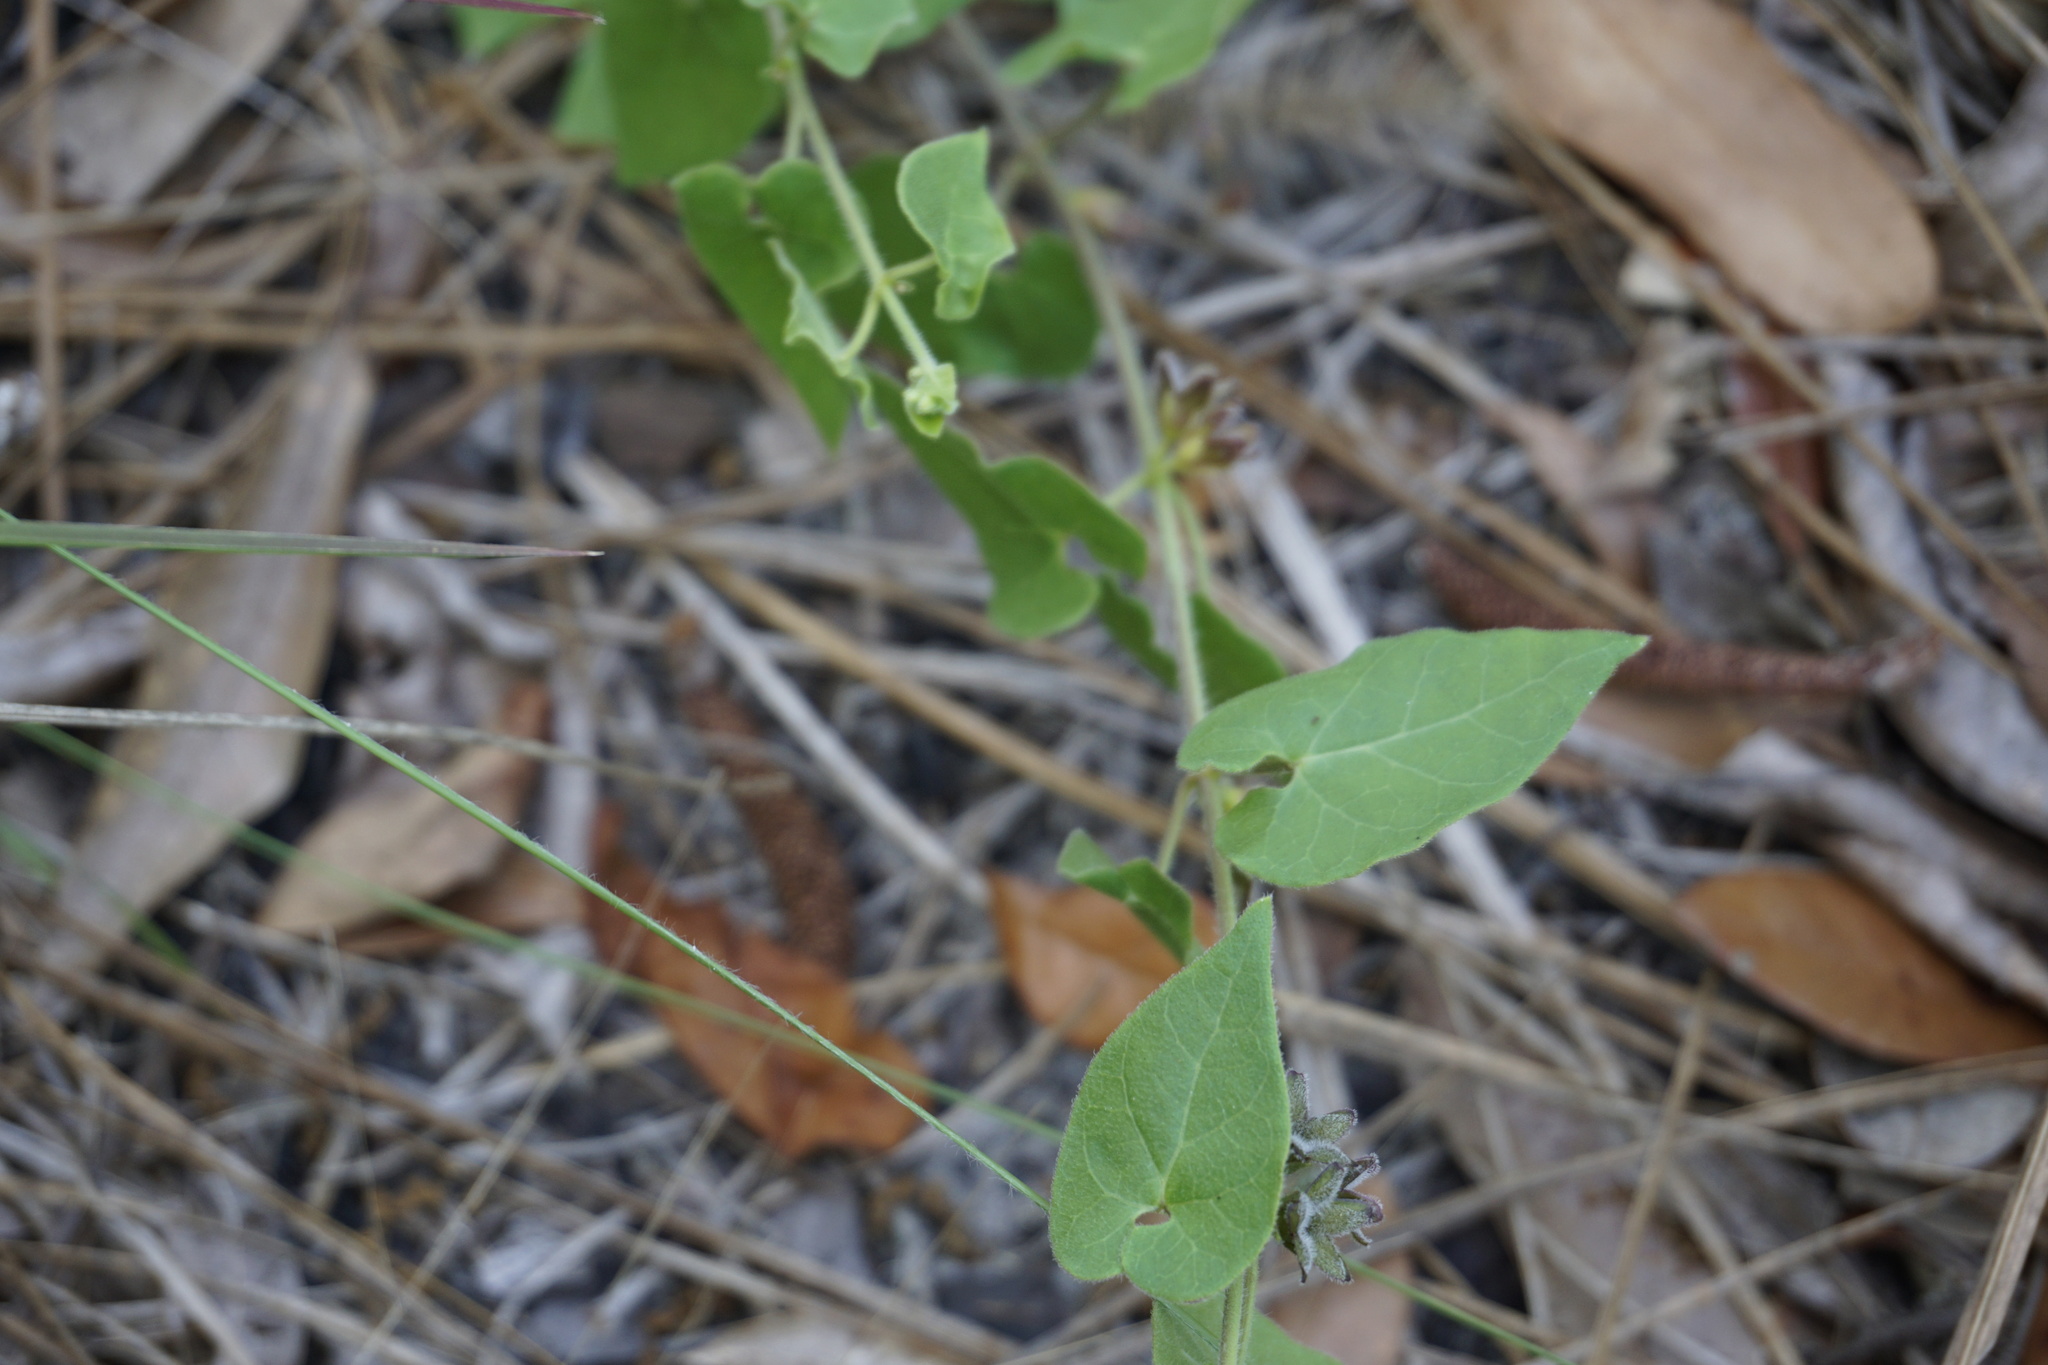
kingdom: Plantae
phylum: Tracheophyta
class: Magnoliopsida
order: Gentianales
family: Apocynaceae
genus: Chthamalia
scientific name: Chthamalia pubiflora
